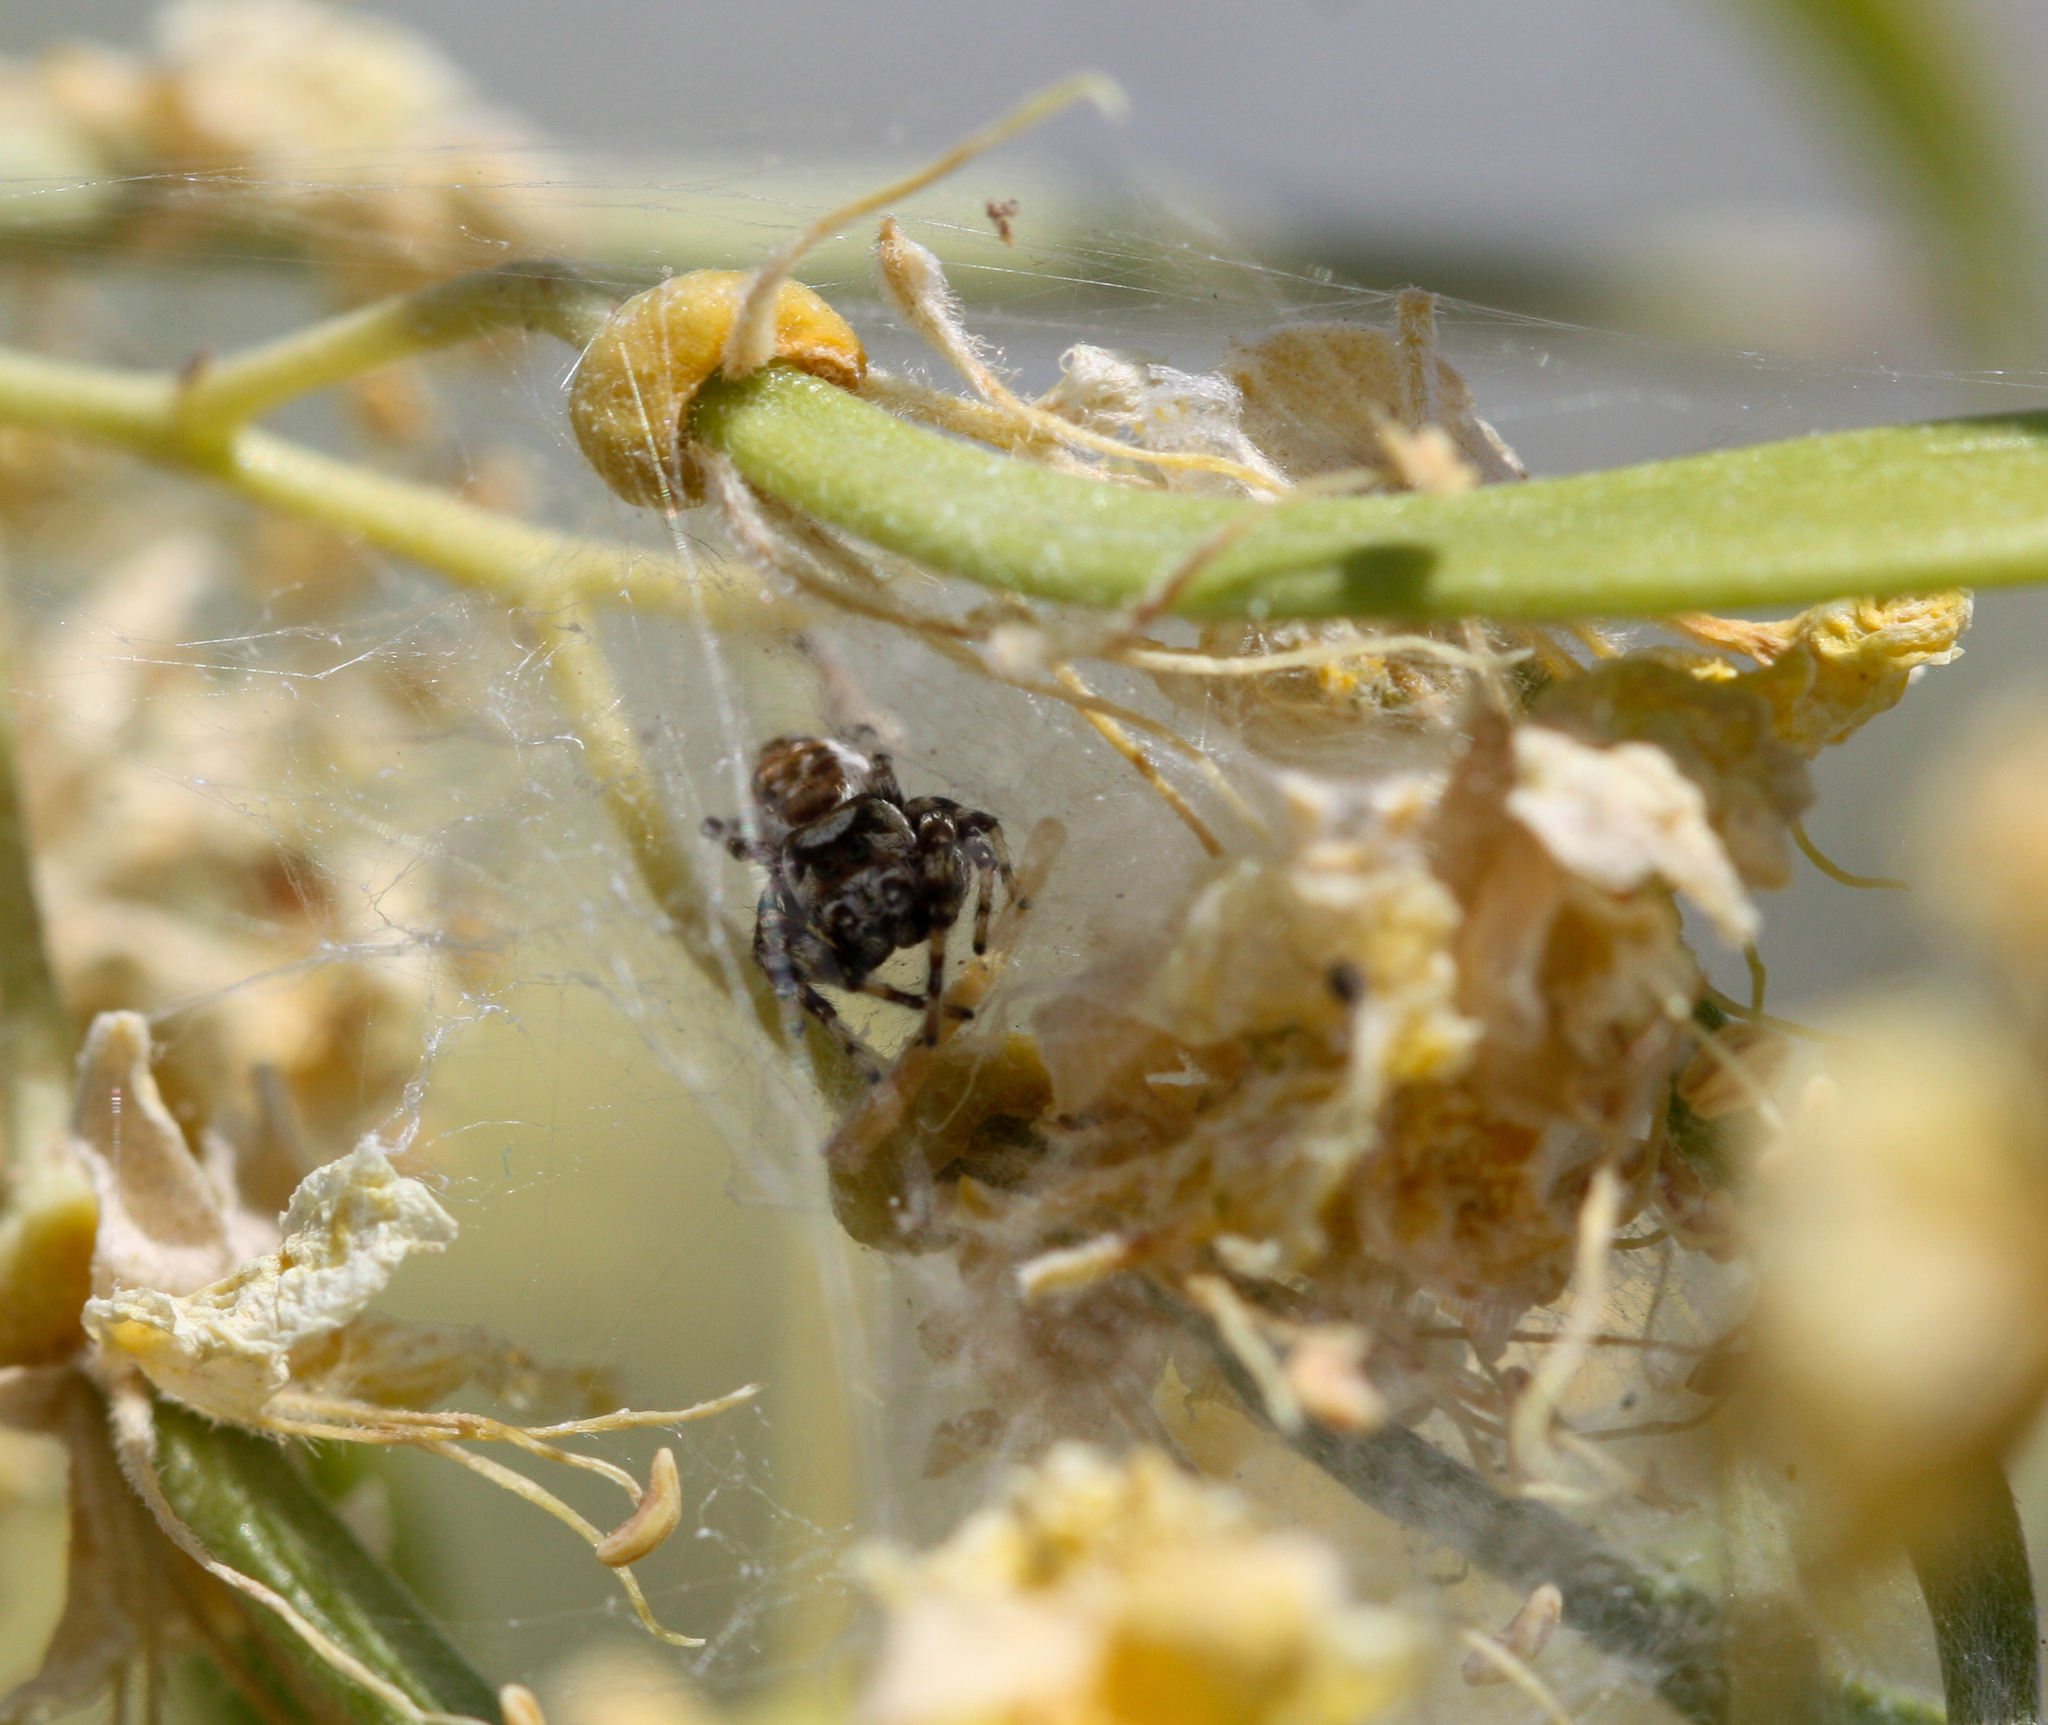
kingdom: Animalia
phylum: Arthropoda
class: Arachnida
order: Araneae
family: Salticidae
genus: Metaphidippus
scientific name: Metaphidippus chera
